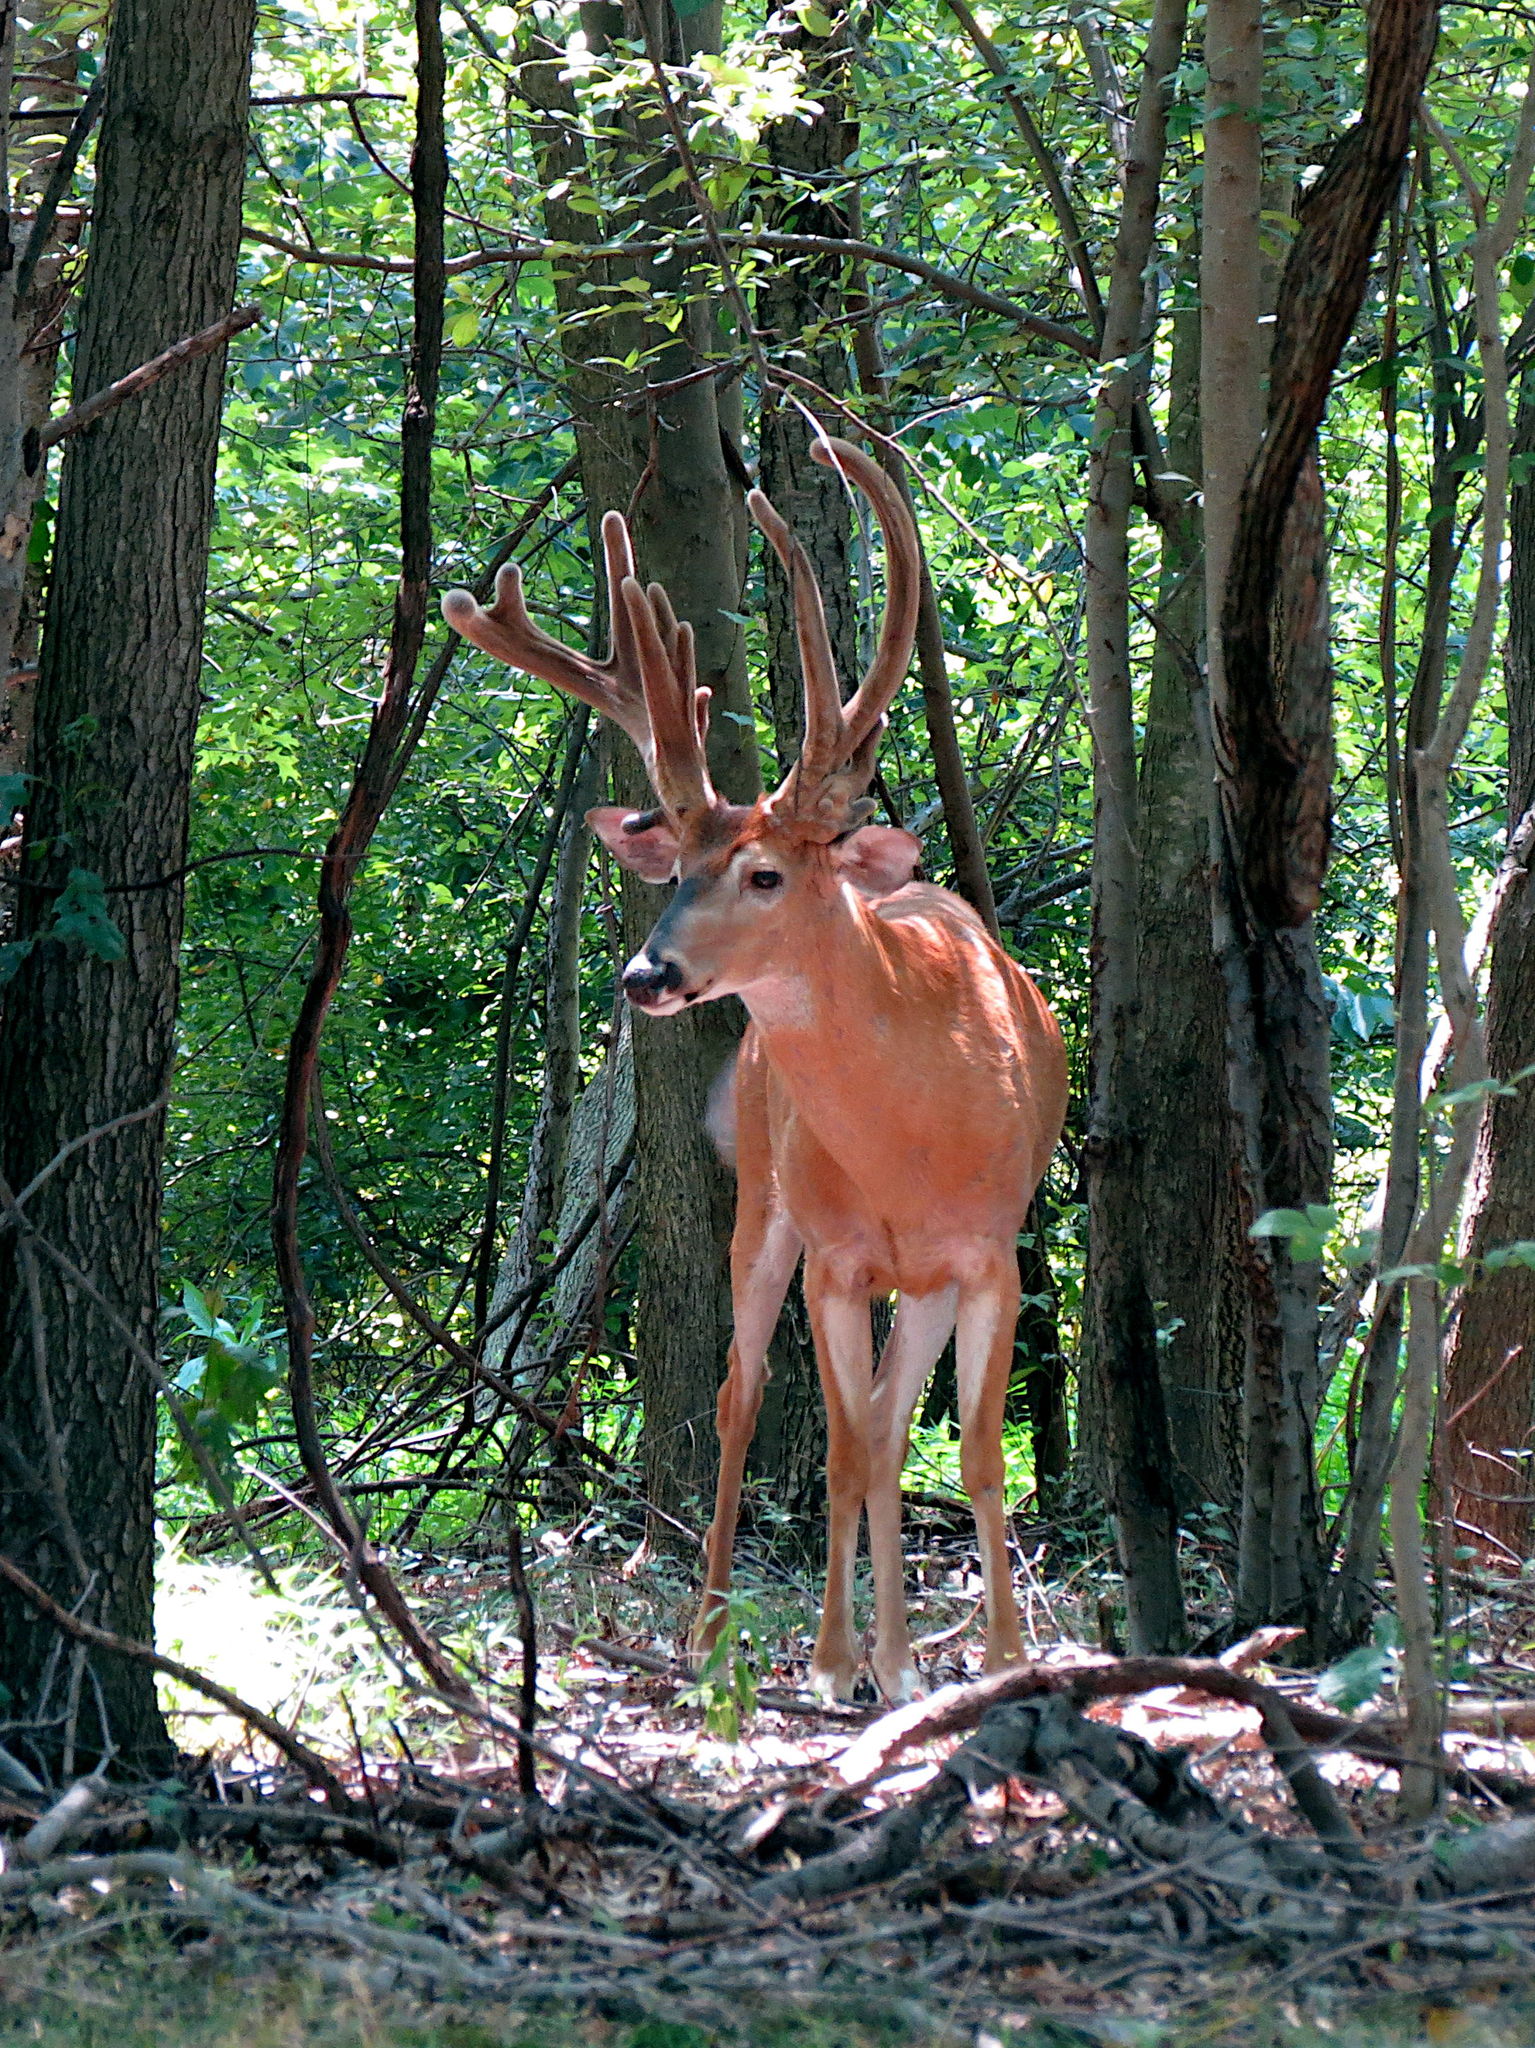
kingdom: Animalia
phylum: Chordata
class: Mammalia
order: Artiodactyla
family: Cervidae
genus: Odocoileus
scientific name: Odocoileus virginianus
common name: White-tailed deer
